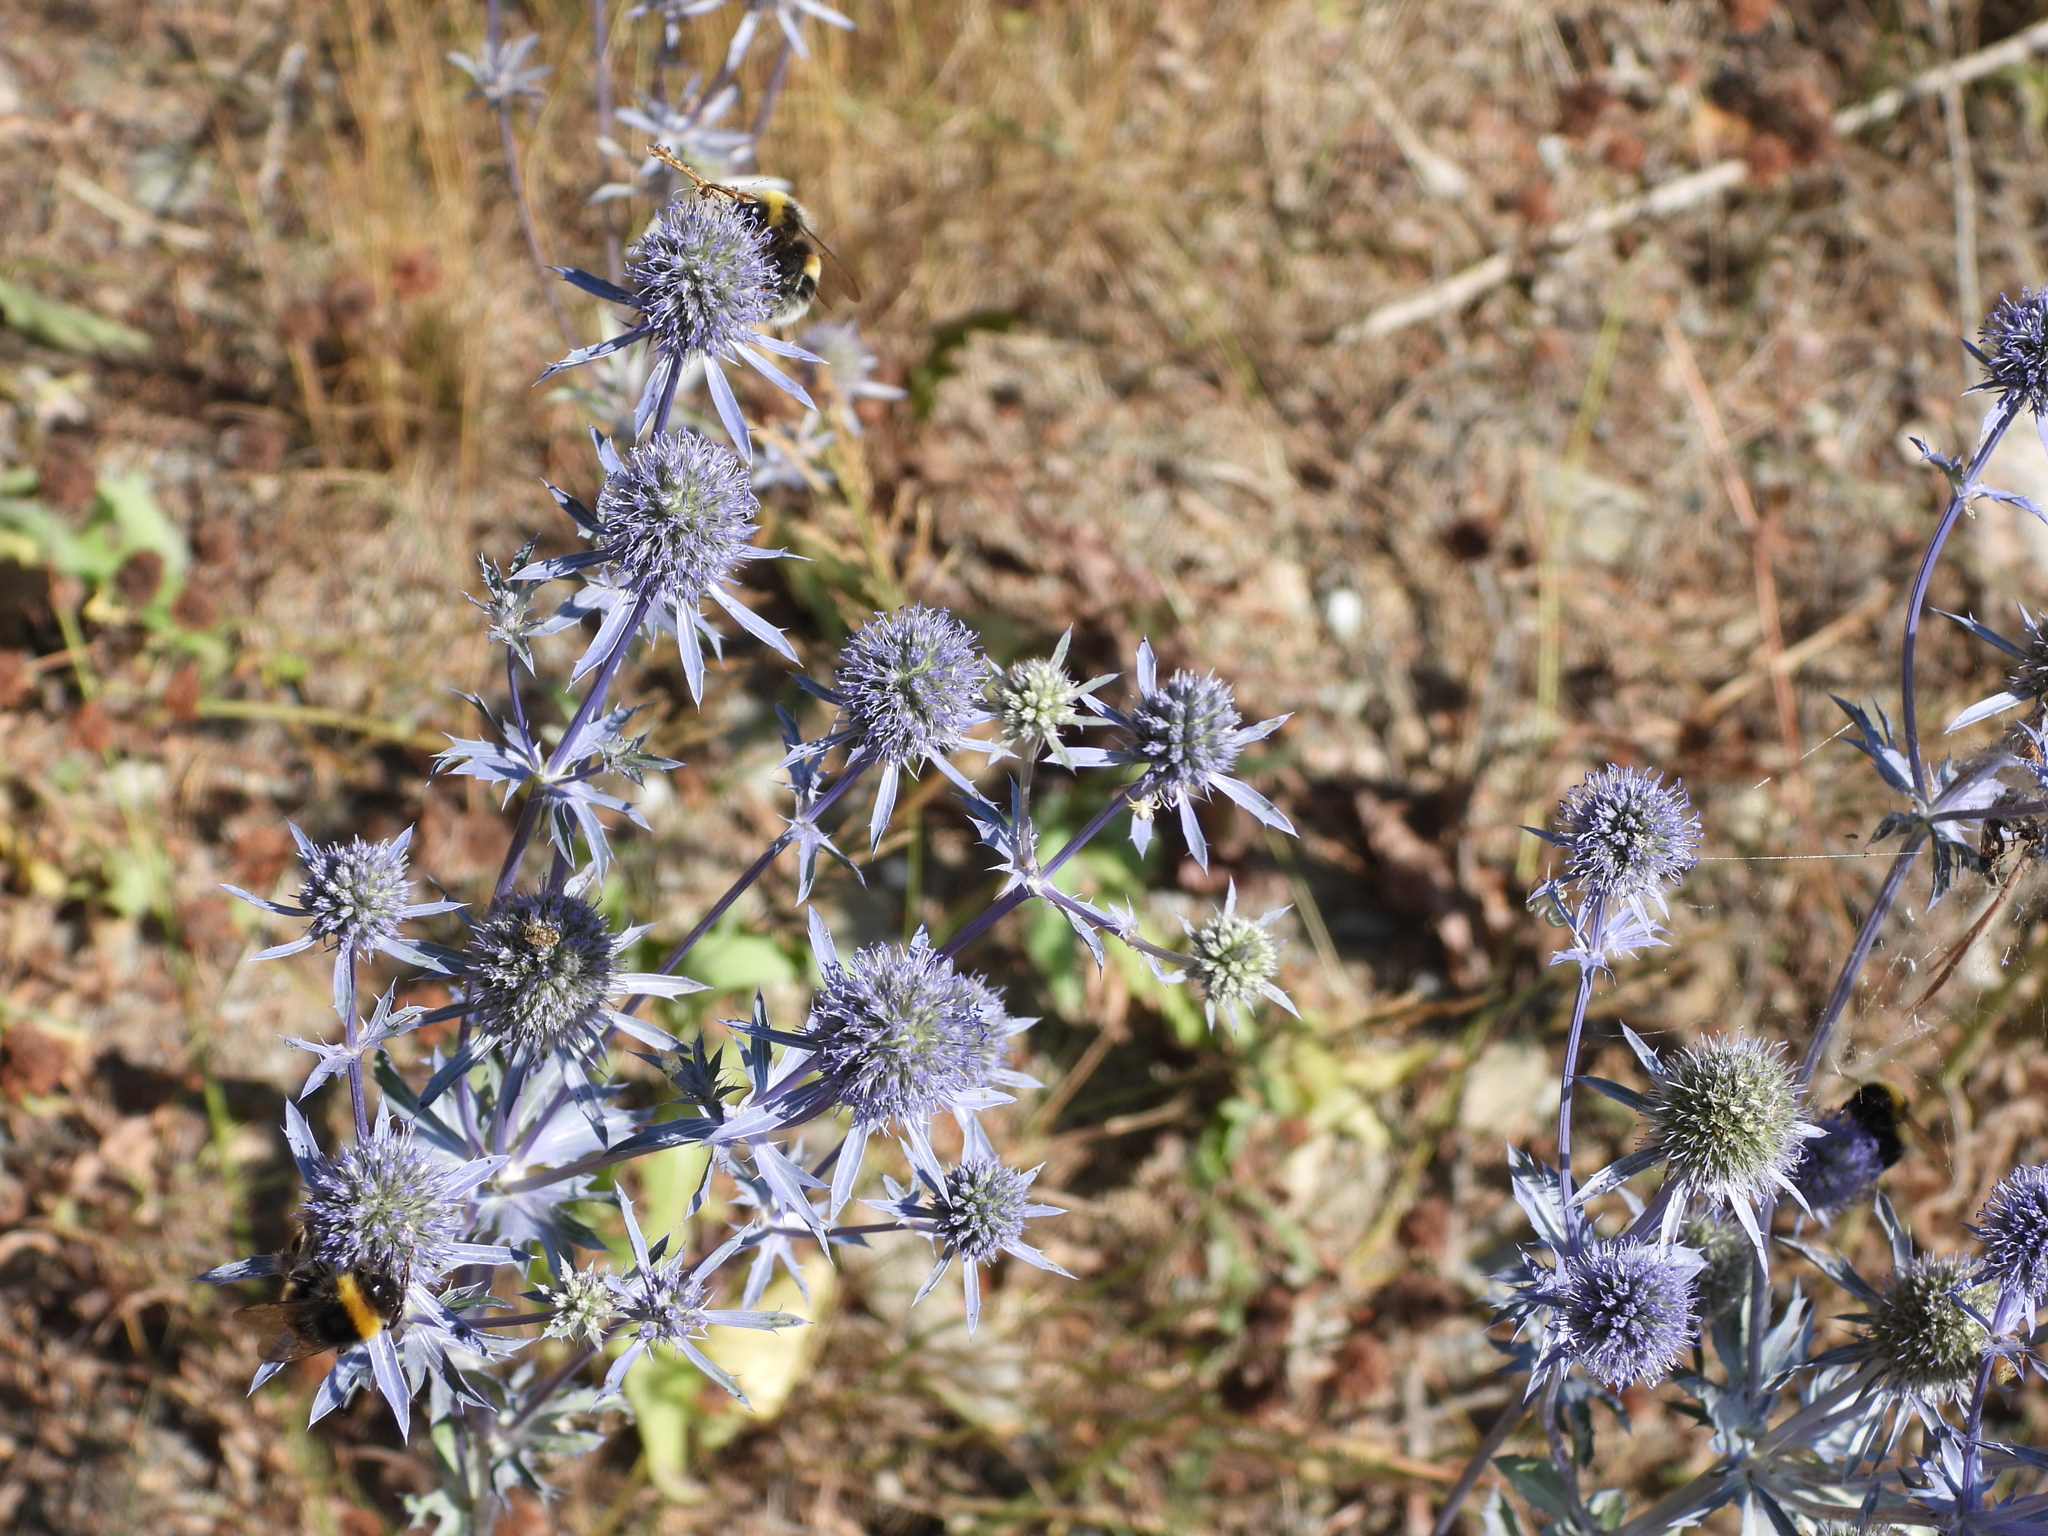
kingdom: Plantae
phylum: Tracheophyta
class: Magnoliopsida
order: Apiales
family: Apiaceae
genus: Eryngium
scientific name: Eryngium planum
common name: Blue eryngo
